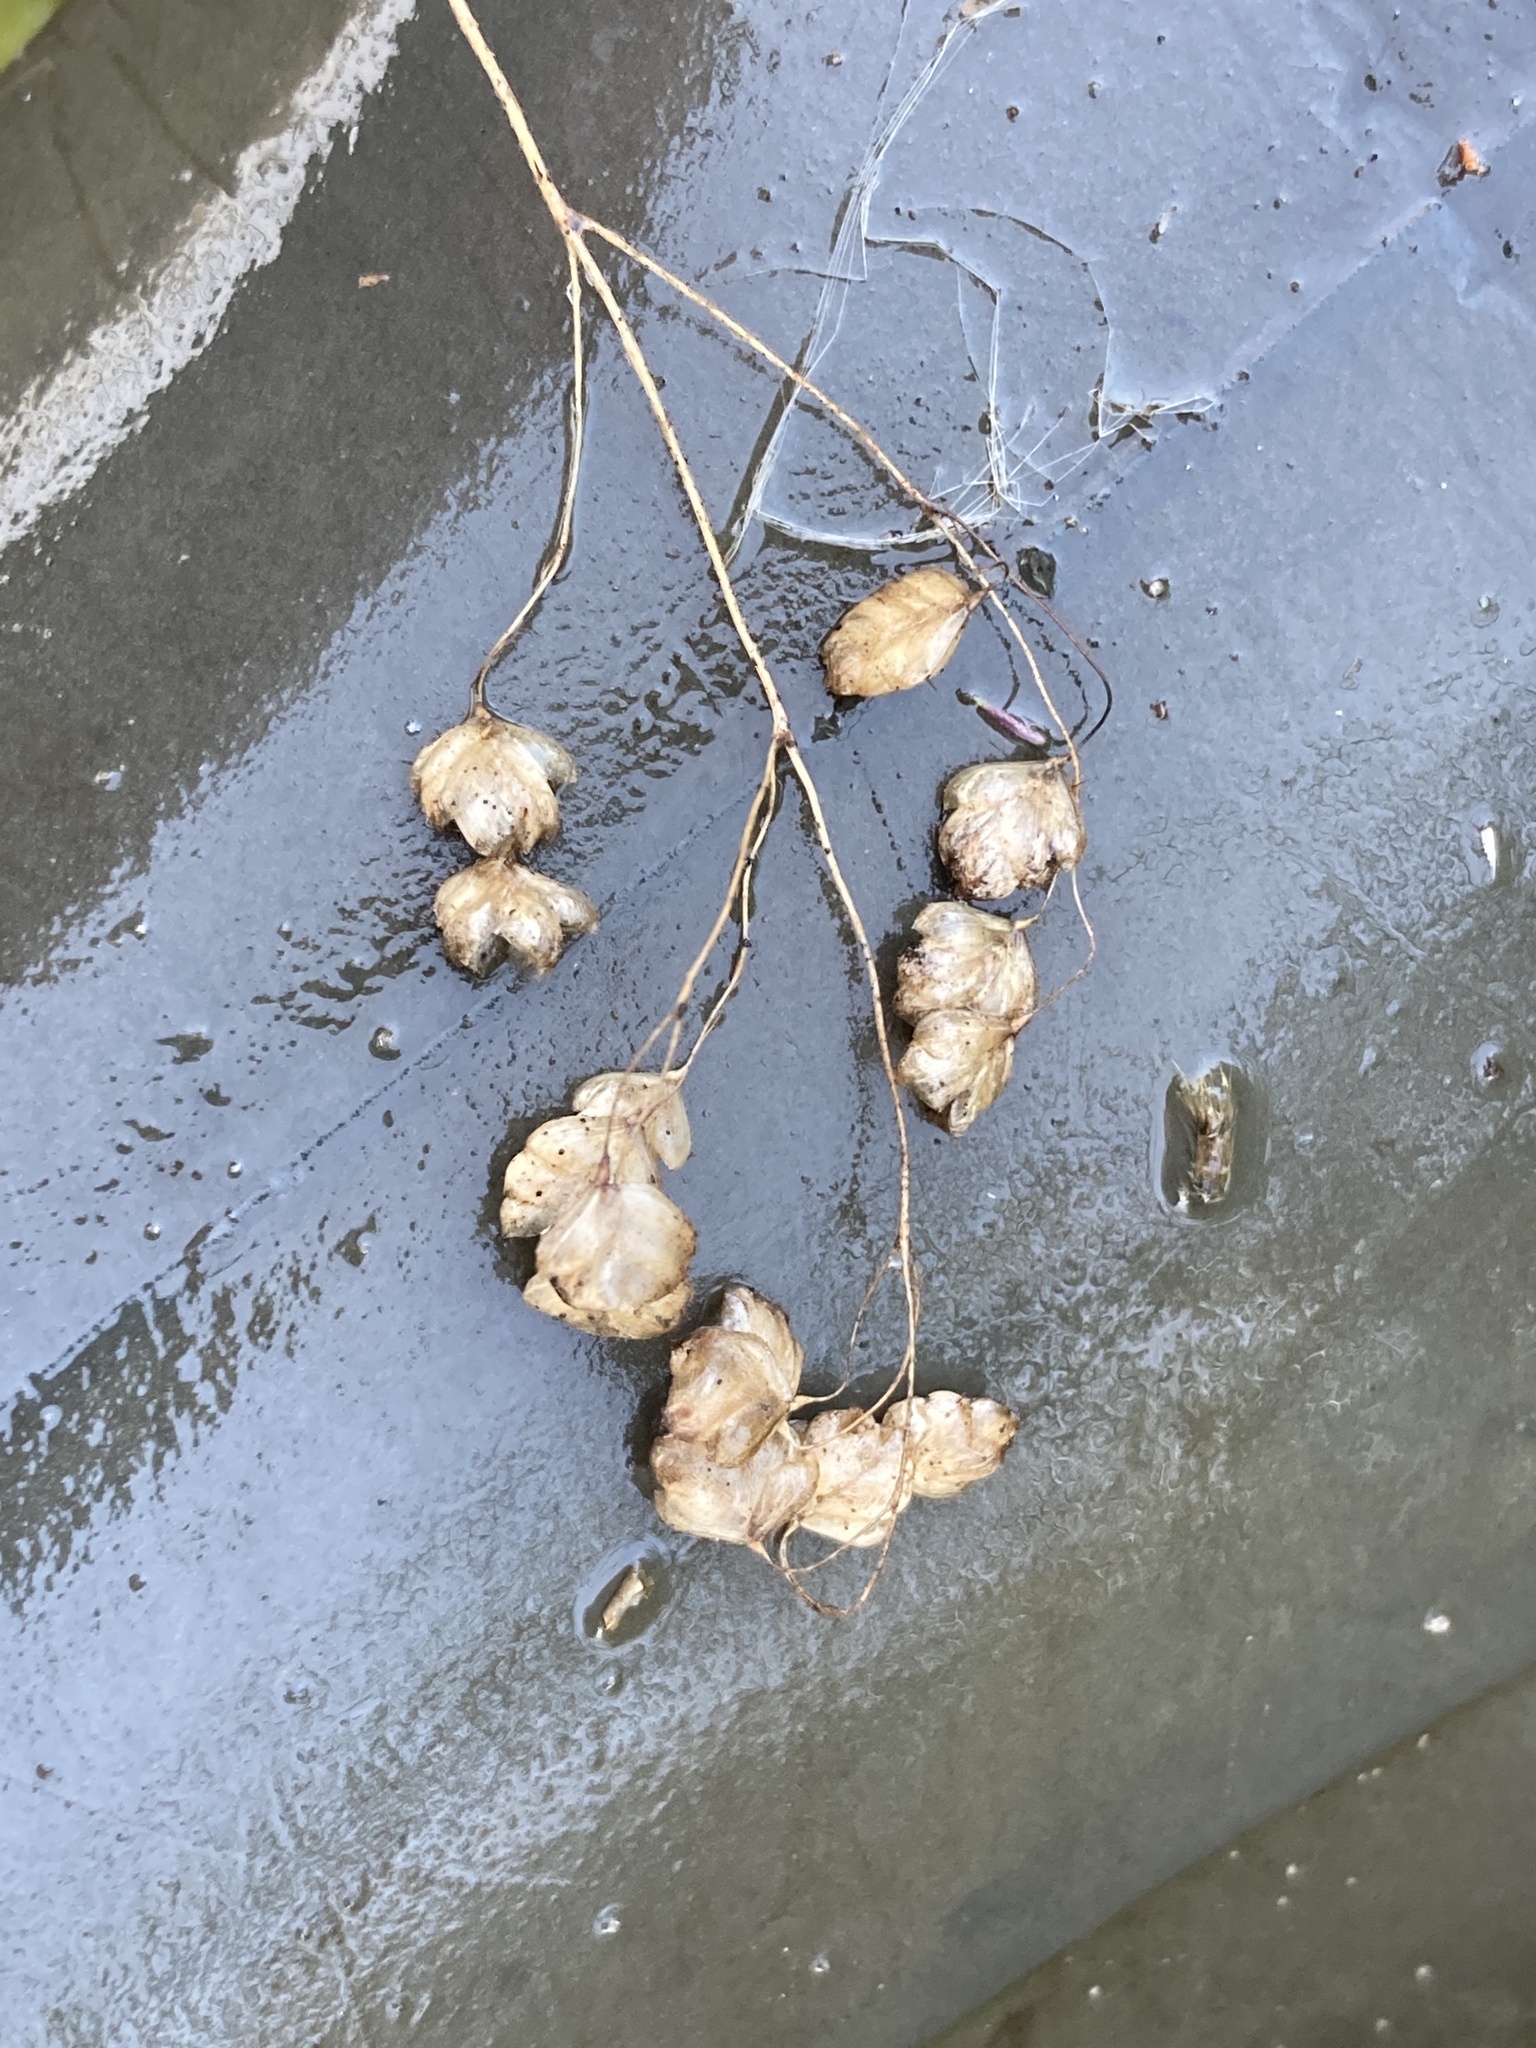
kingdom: Plantae
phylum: Tracheophyta
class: Liliopsida
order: Poales
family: Poaceae
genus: Briza
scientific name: Briza media
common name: Quaking grass
